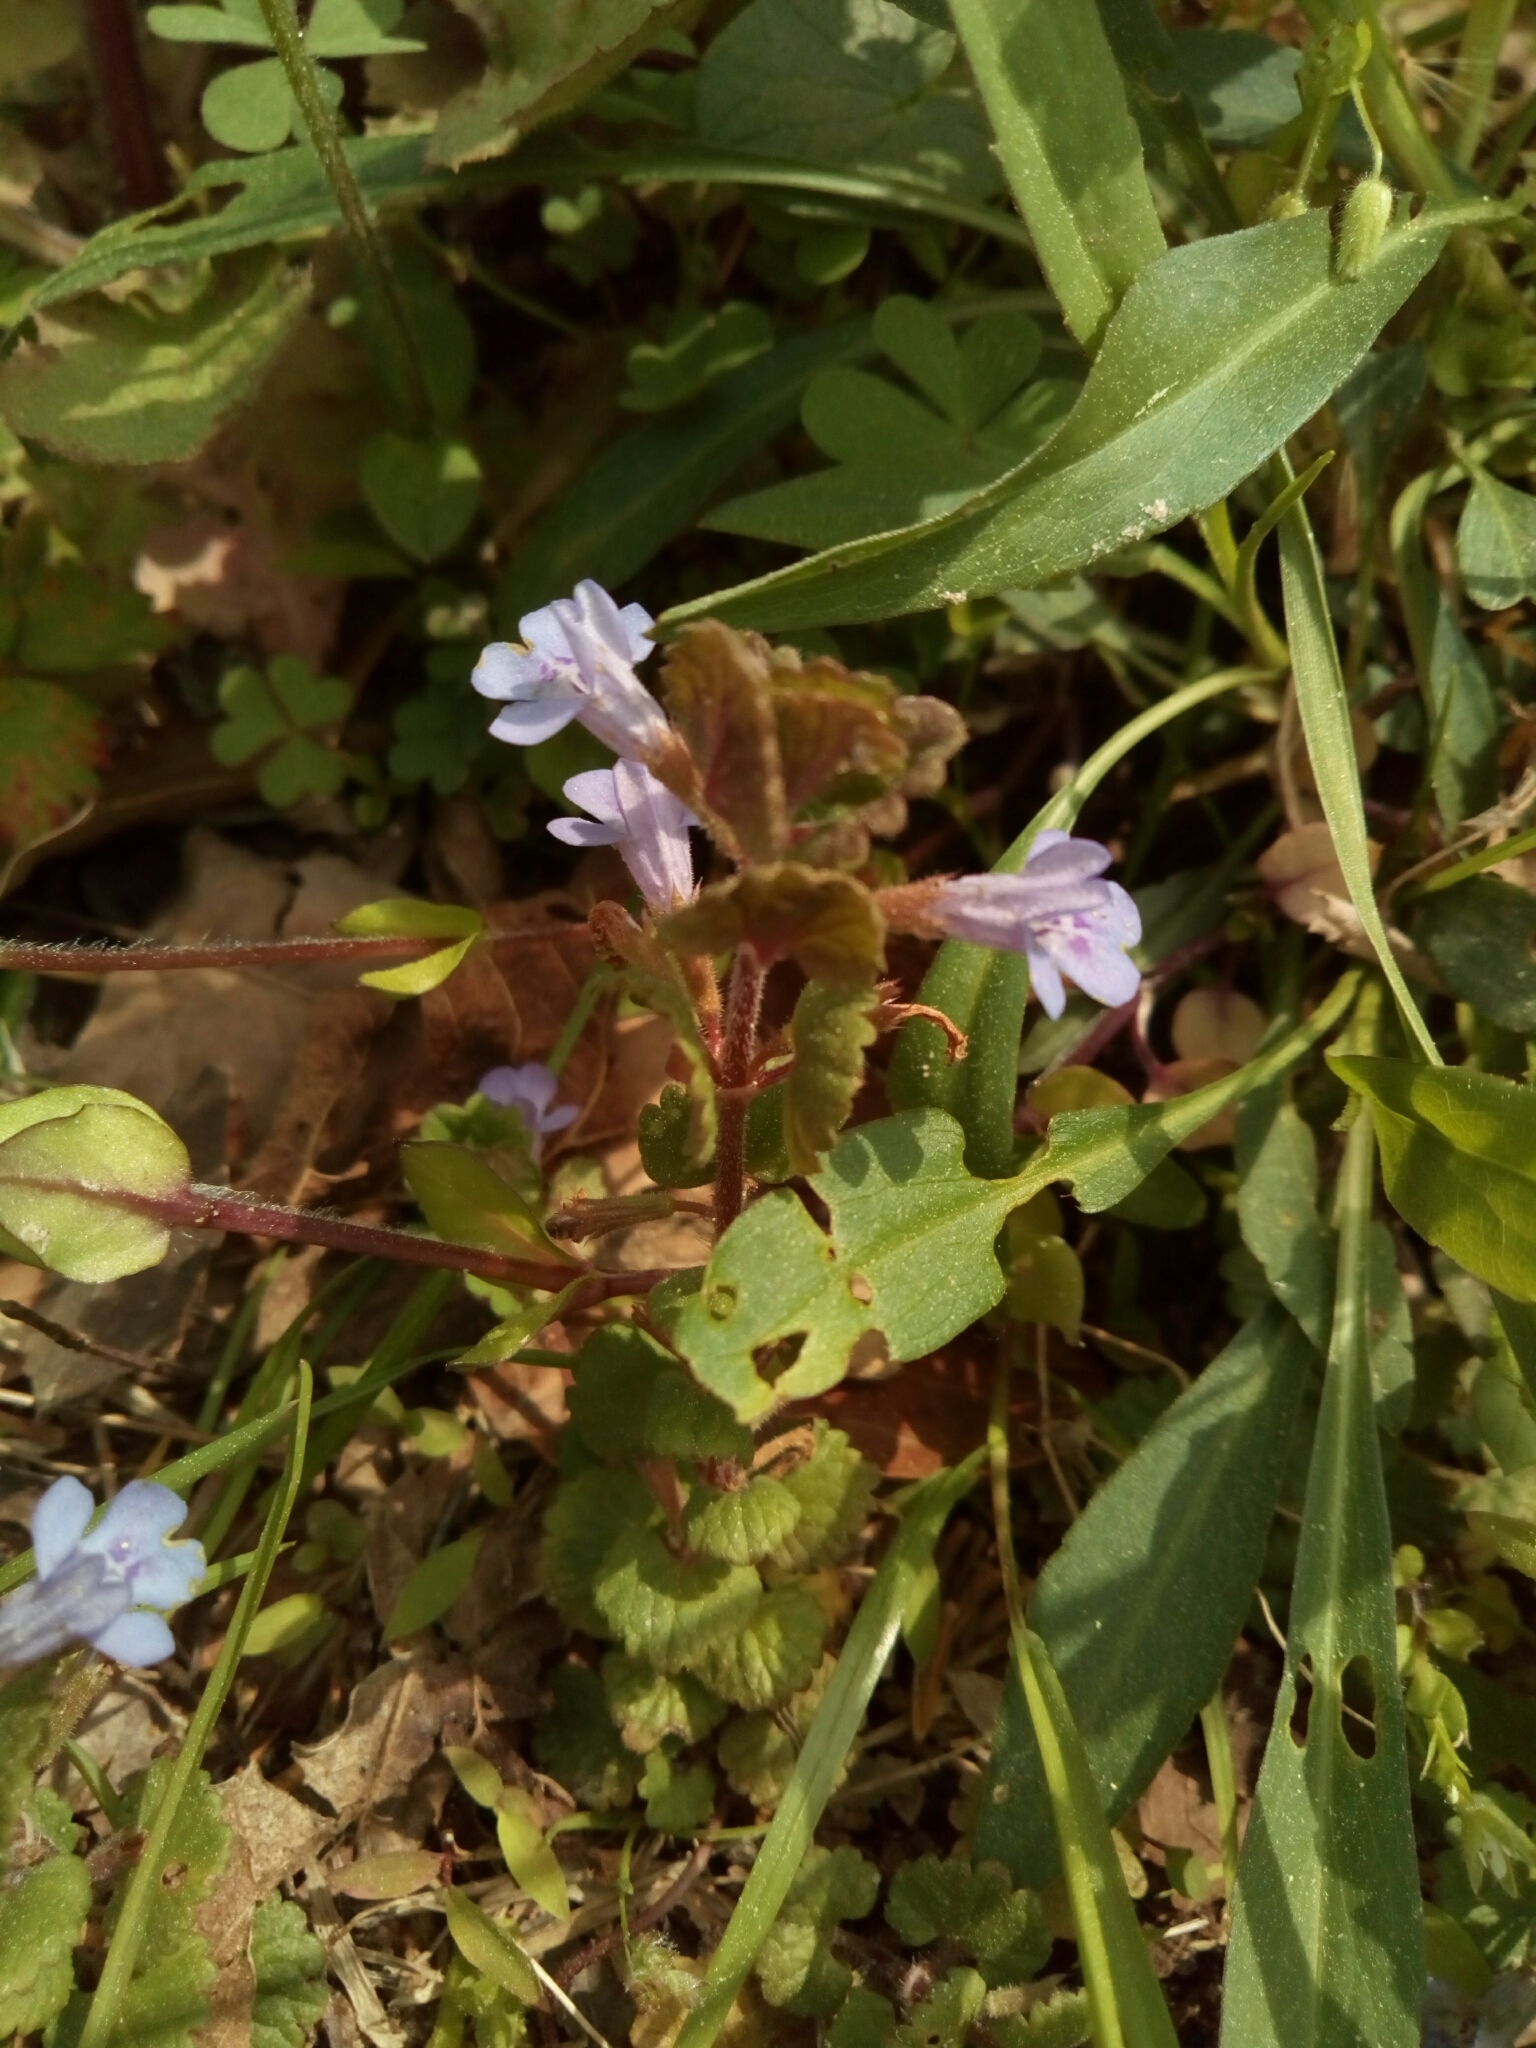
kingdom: Plantae
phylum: Tracheophyta
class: Magnoliopsida
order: Lamiales
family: Lamiaceae
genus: Glechoma
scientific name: Glechoma hederacea
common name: Ground ivy
